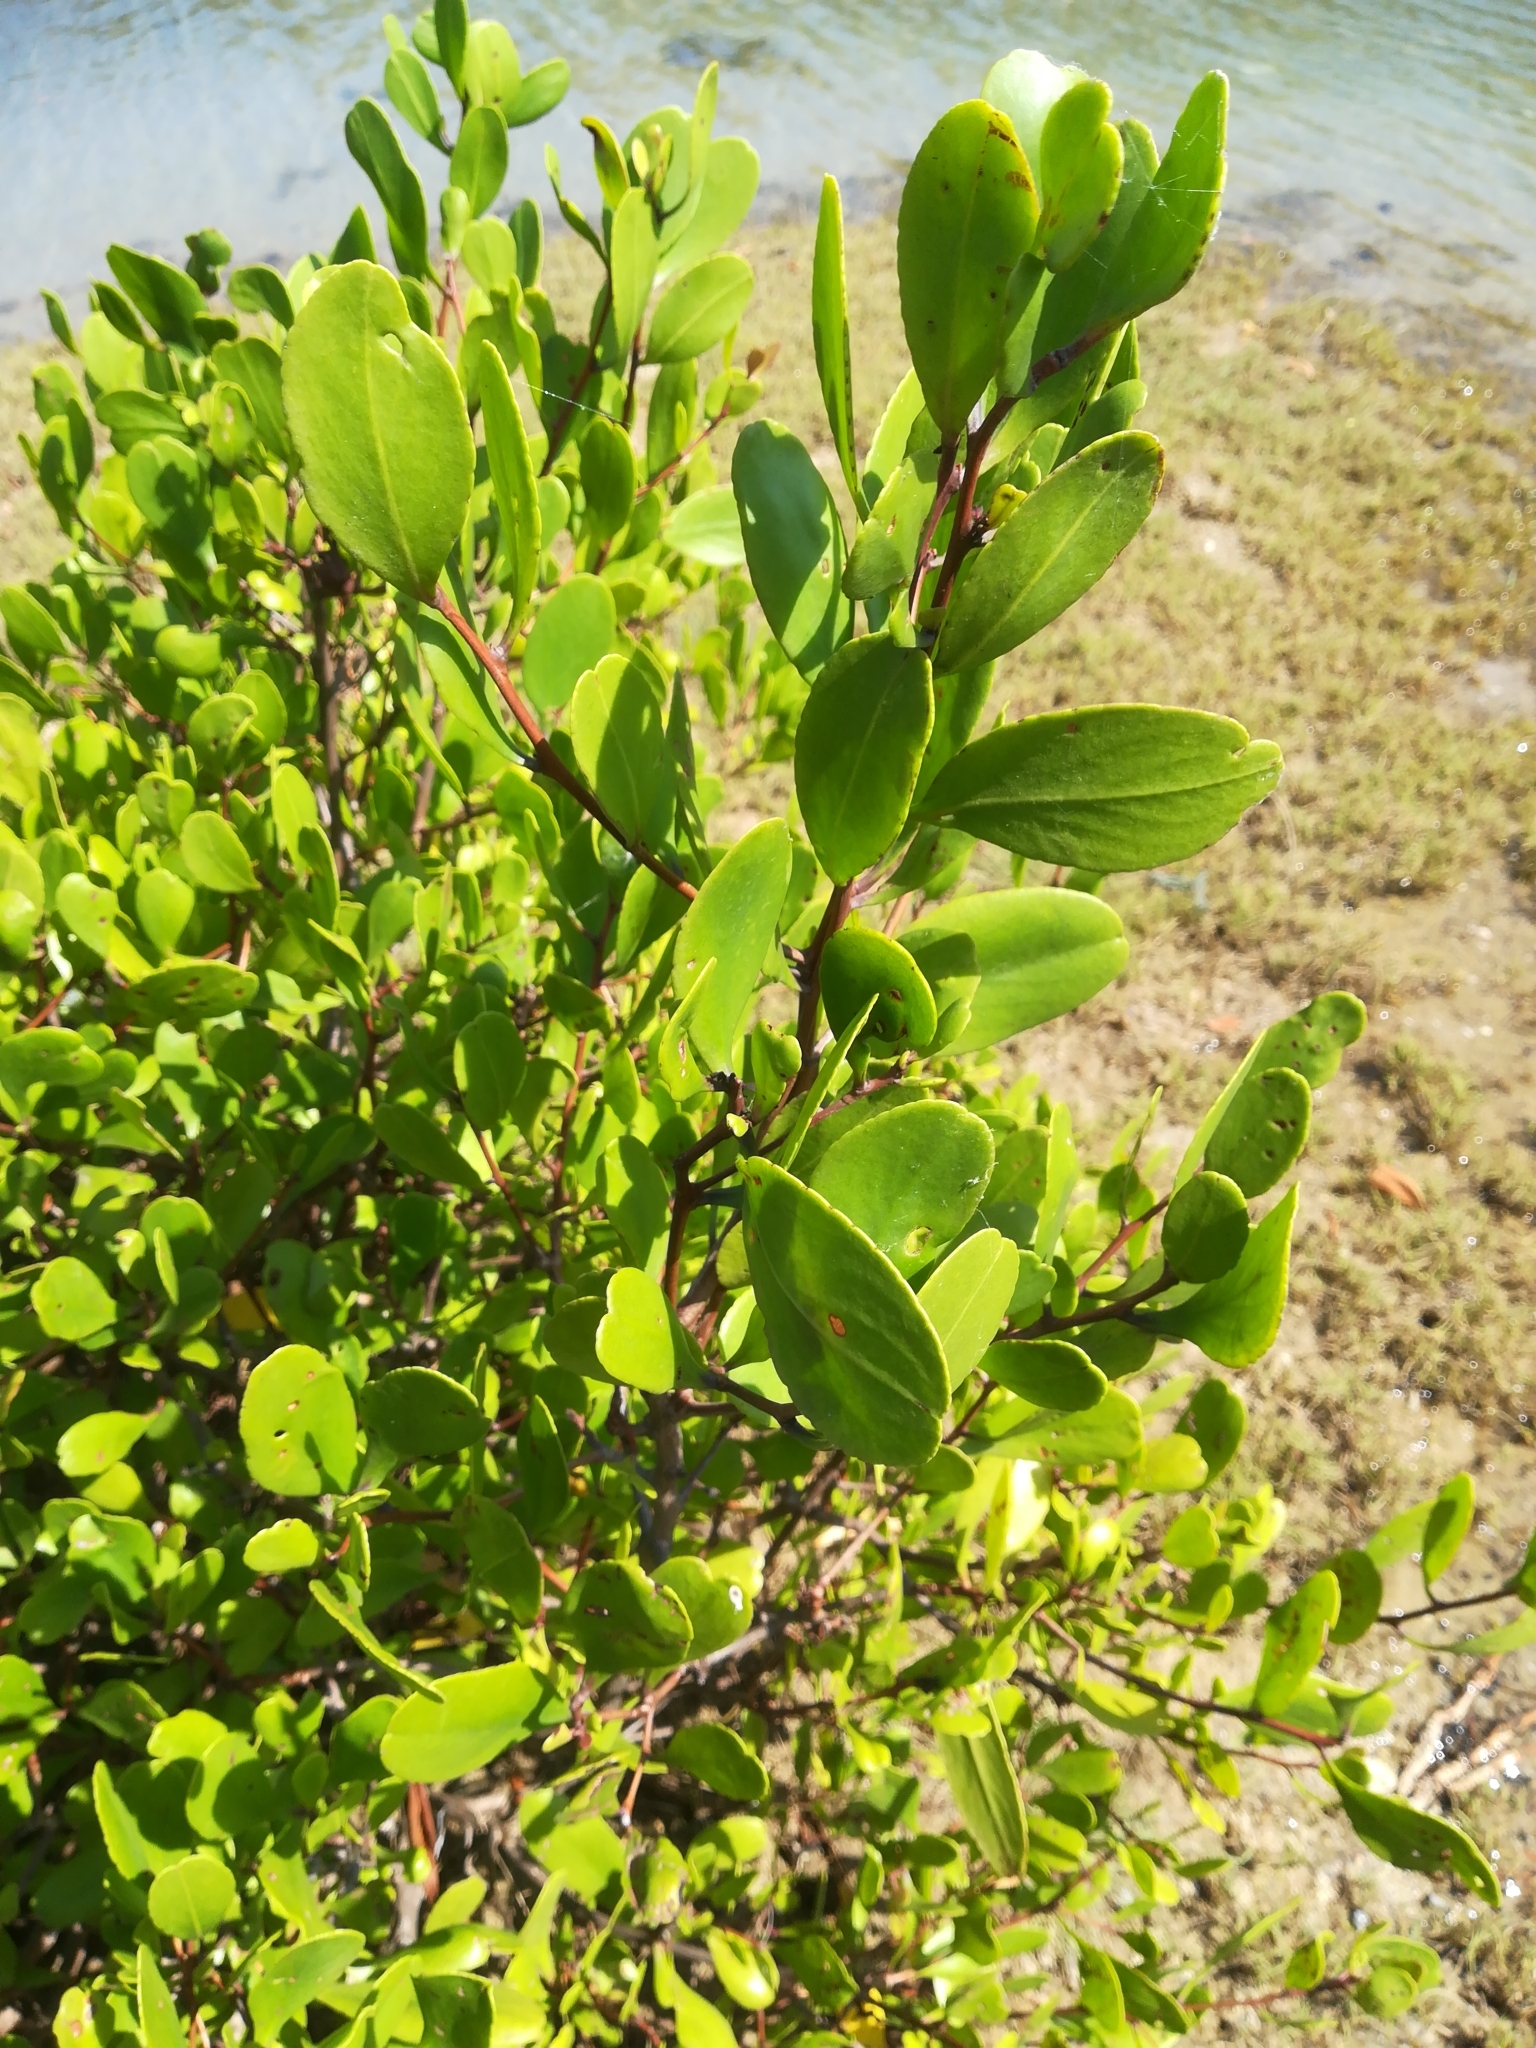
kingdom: Plantae
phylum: Tracheophyta
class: Magnoliopsida
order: Myrtales
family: Combretaceae
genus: Lumnitzera
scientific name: Lumnitzera racemosa
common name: White-flowered black mangrove
